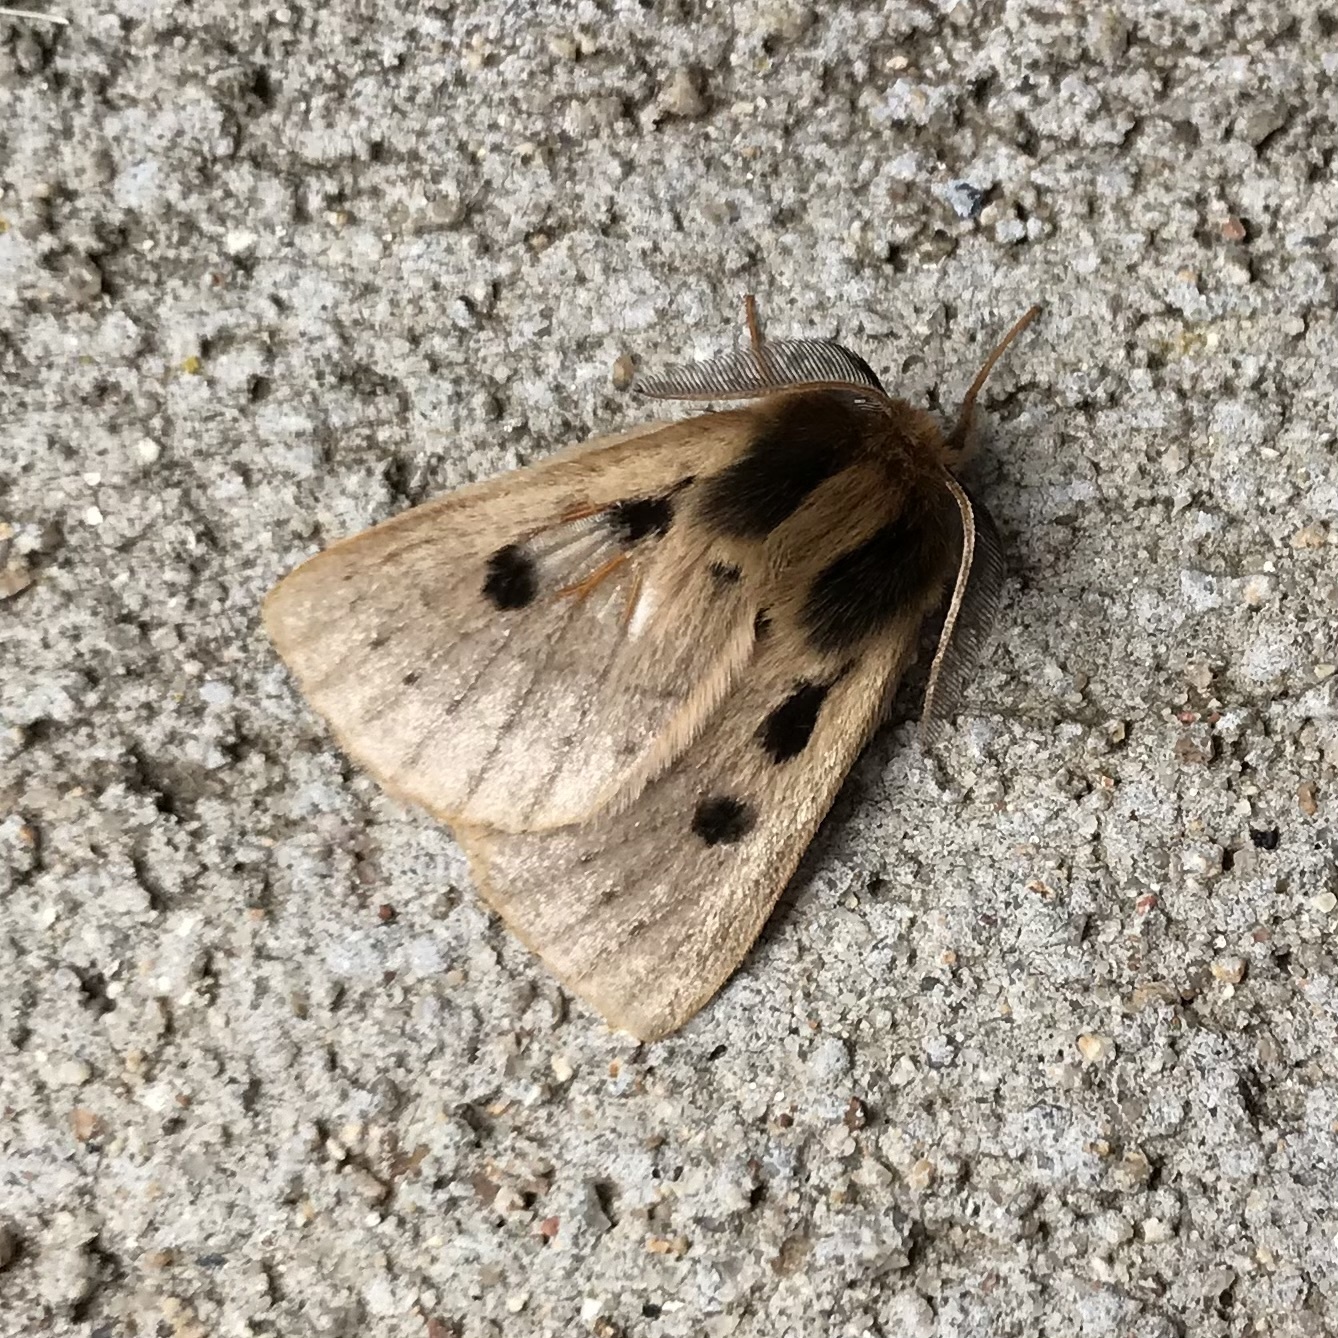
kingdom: Animalia
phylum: Arthropoda
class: Insecta
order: Lepidoptera
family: Anthelidae
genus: Anthela
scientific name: Anthela ocellata
